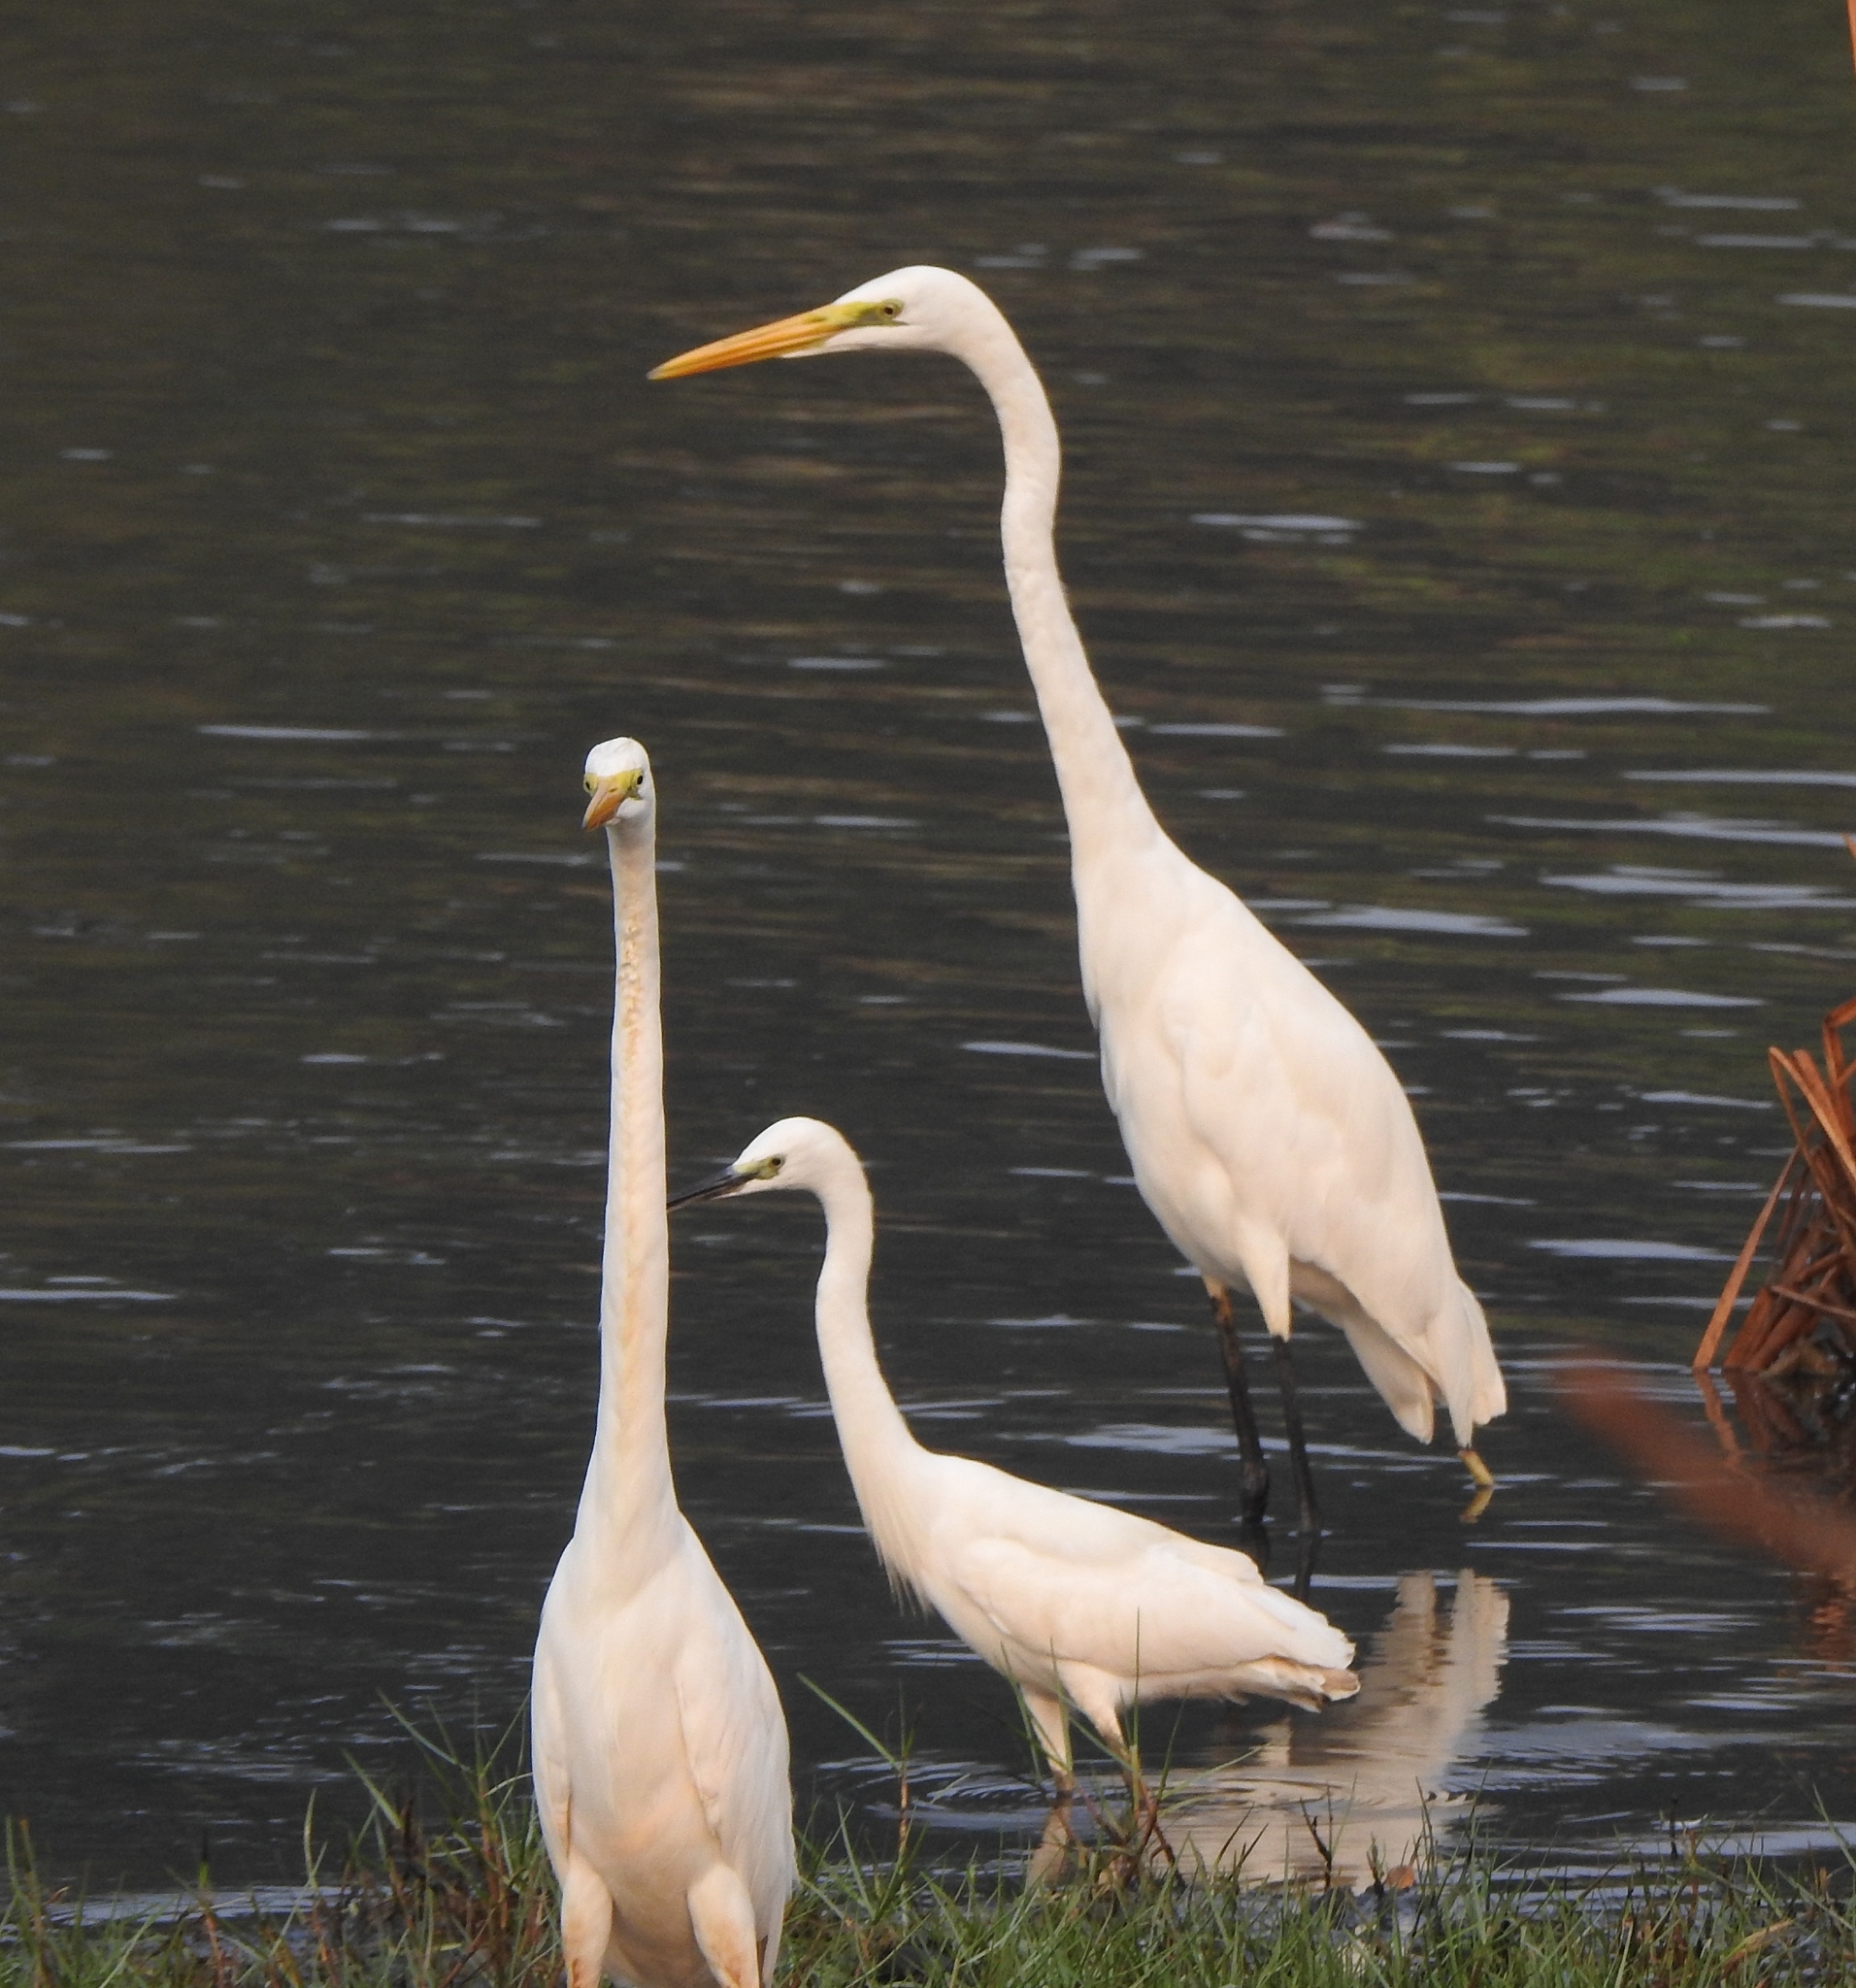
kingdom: Animalia
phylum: Chordata
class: Aves
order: Pelecaniformes
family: Ardeidae
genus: Ardea
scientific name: Ardea alba
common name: Great egret
